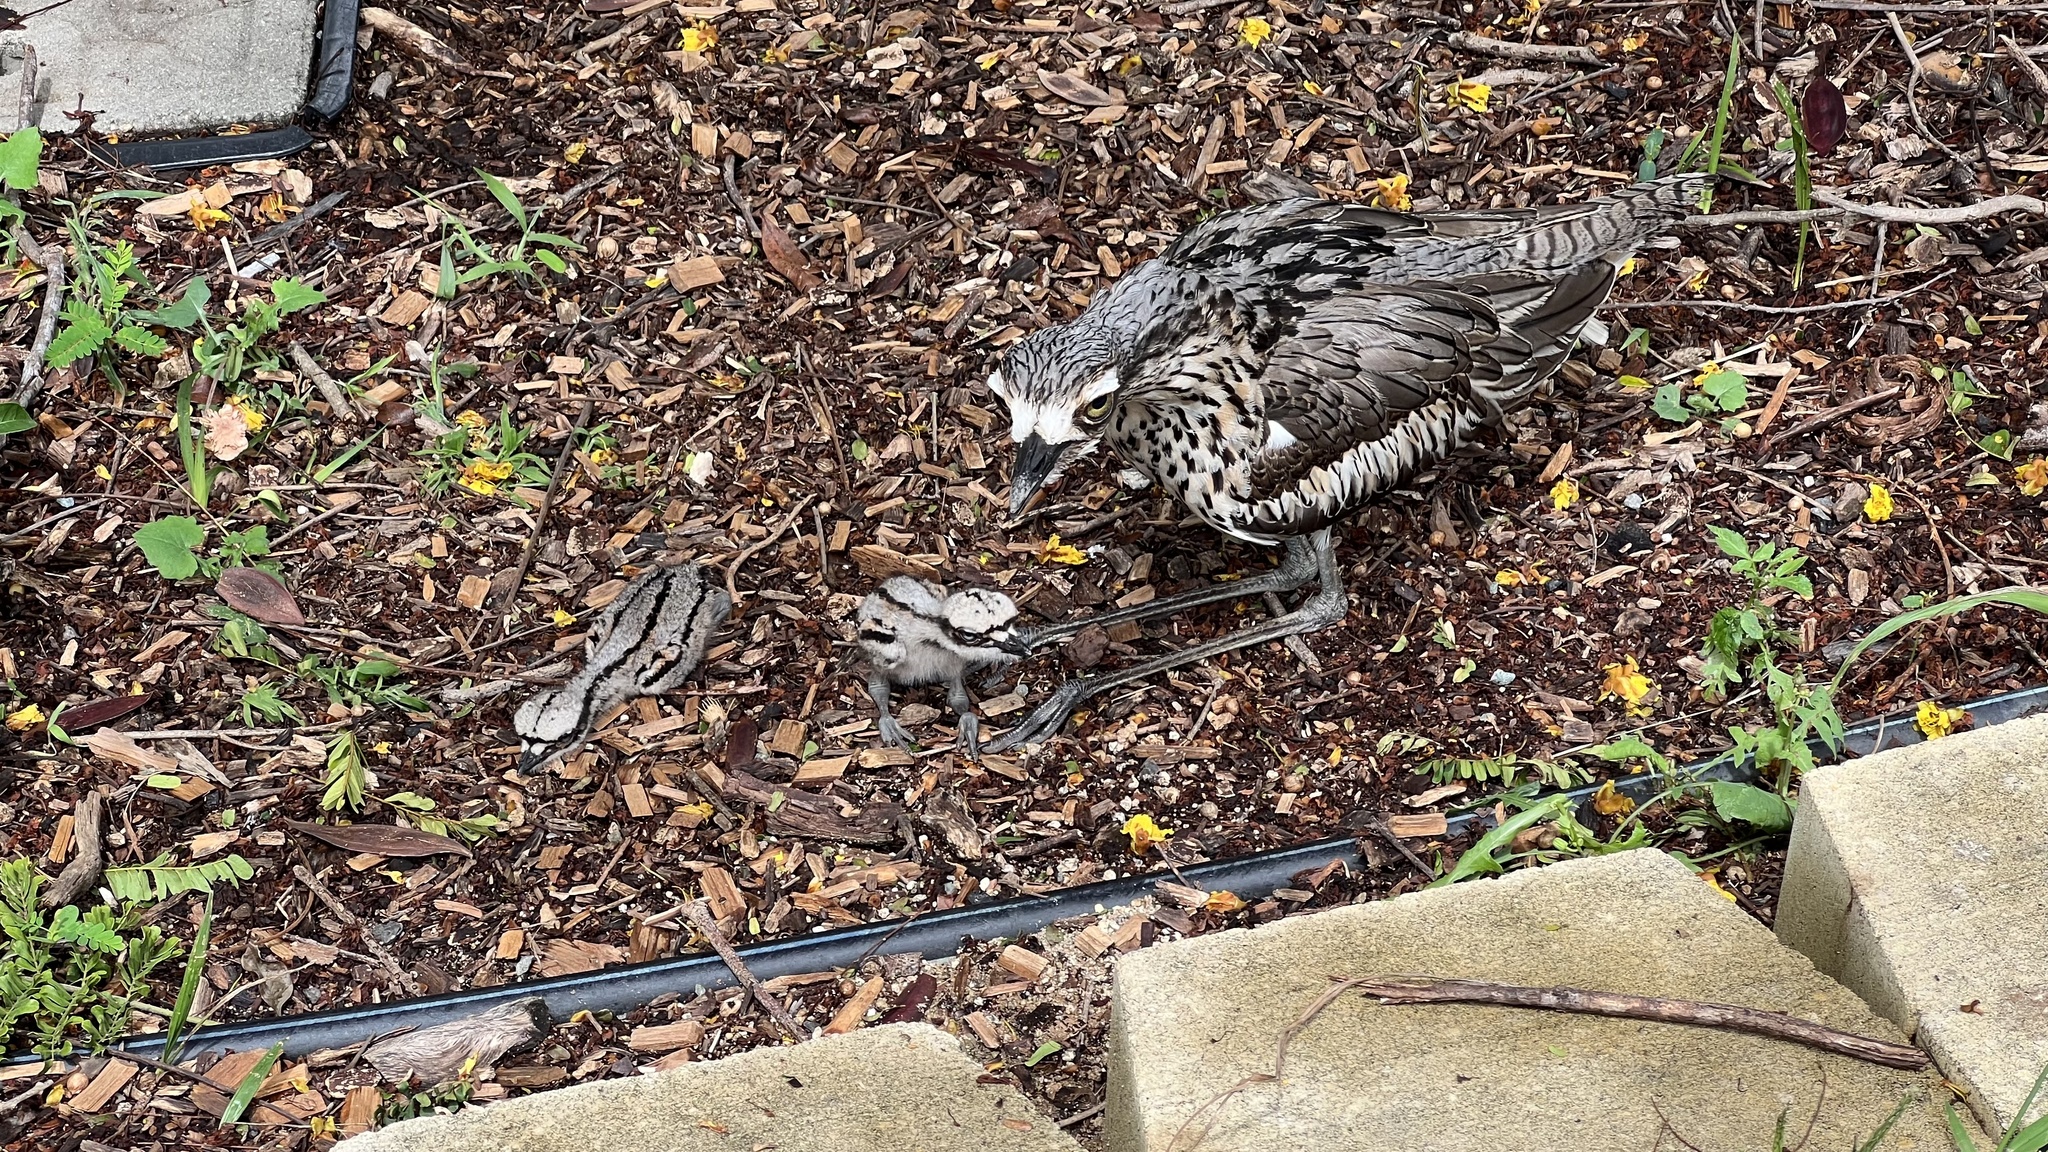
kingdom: Animalia
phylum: Chordata
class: Aves
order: Charadriiformes
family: Burhinidae
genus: Burhinus
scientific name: Burhinus grallarius
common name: Bush stone-curlew
